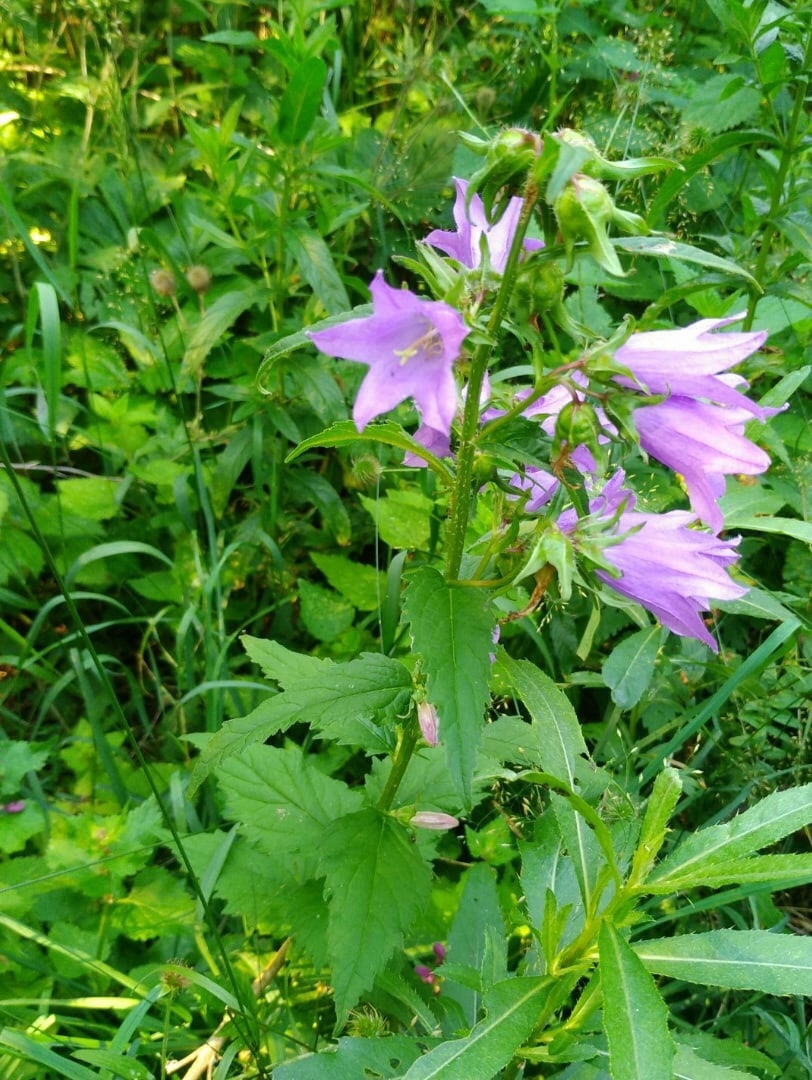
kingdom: Plantae
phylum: Tracheophyta
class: Magnoliopsida
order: Asterales
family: Campanulaceae
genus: Campanula
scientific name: Campanula trachelium
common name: Nettle-leaved bellflower
